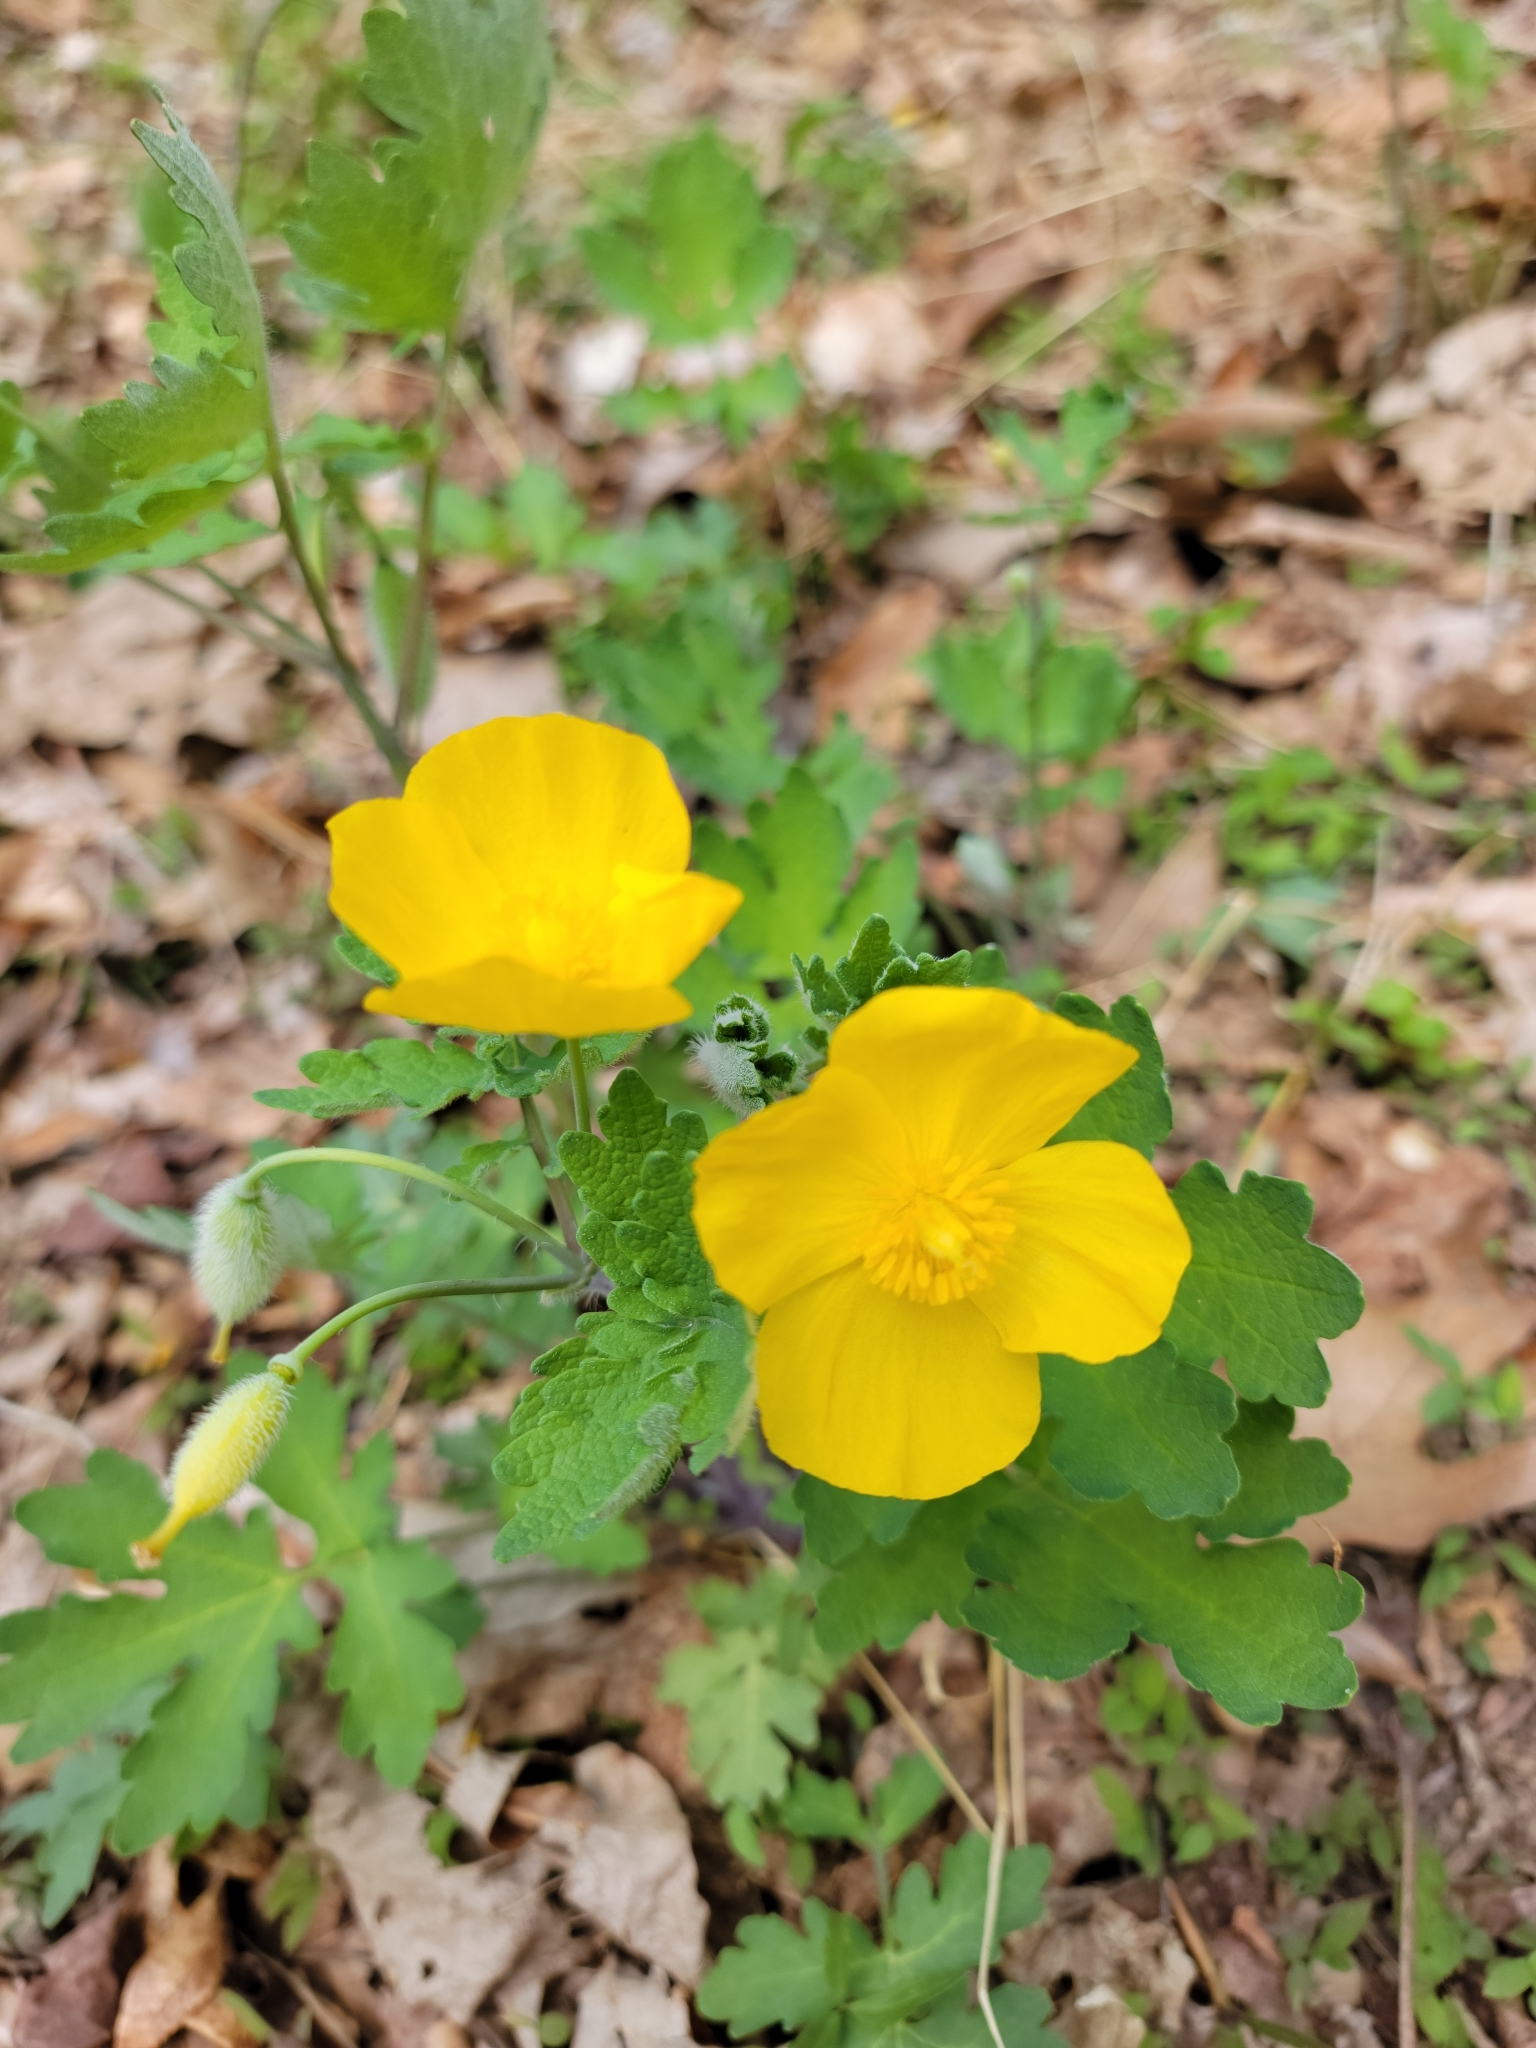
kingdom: Plantae
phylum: Tracheophyta
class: Magnoliopsida
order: Ranunculales
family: Papaveraceae
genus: Stylophorum
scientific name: Stylophorum diphyllum
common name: Celandine poppy
